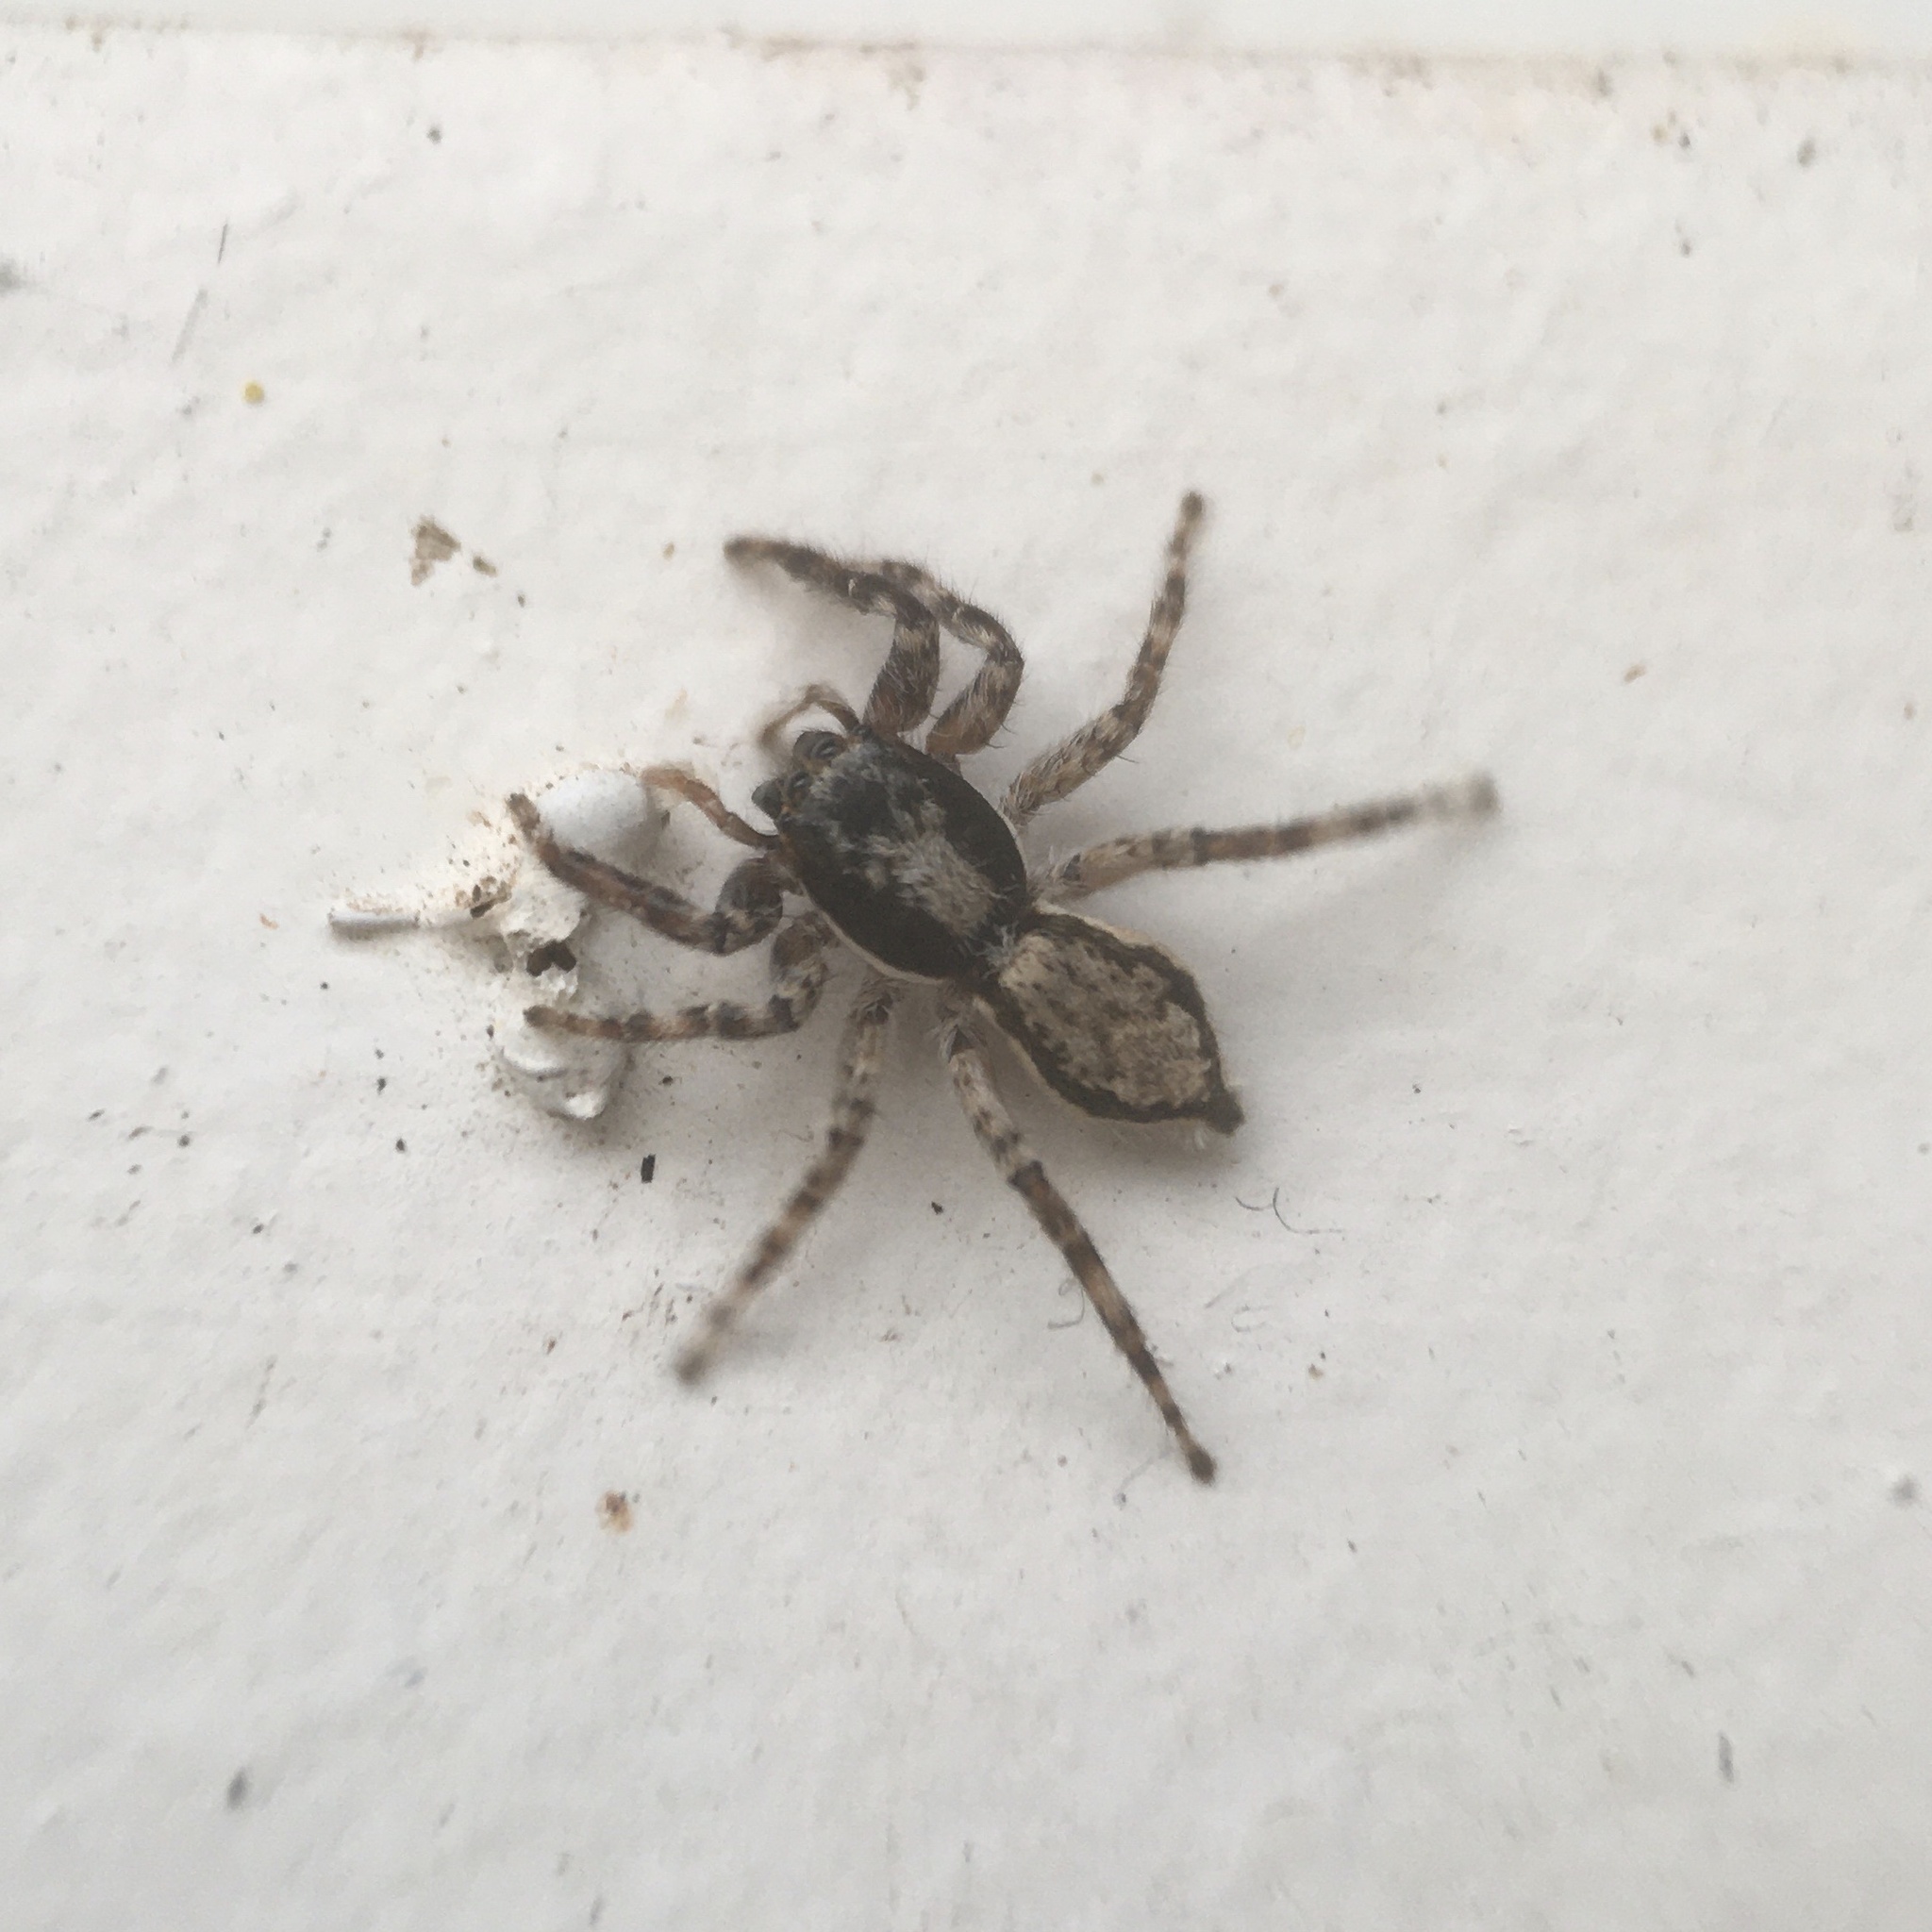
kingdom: Animalia
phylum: Arthropoda
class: Arachnida
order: Araneae
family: Salticidae
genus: Menemerus
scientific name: Menemerus bivittatus
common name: Gray wall jumper
